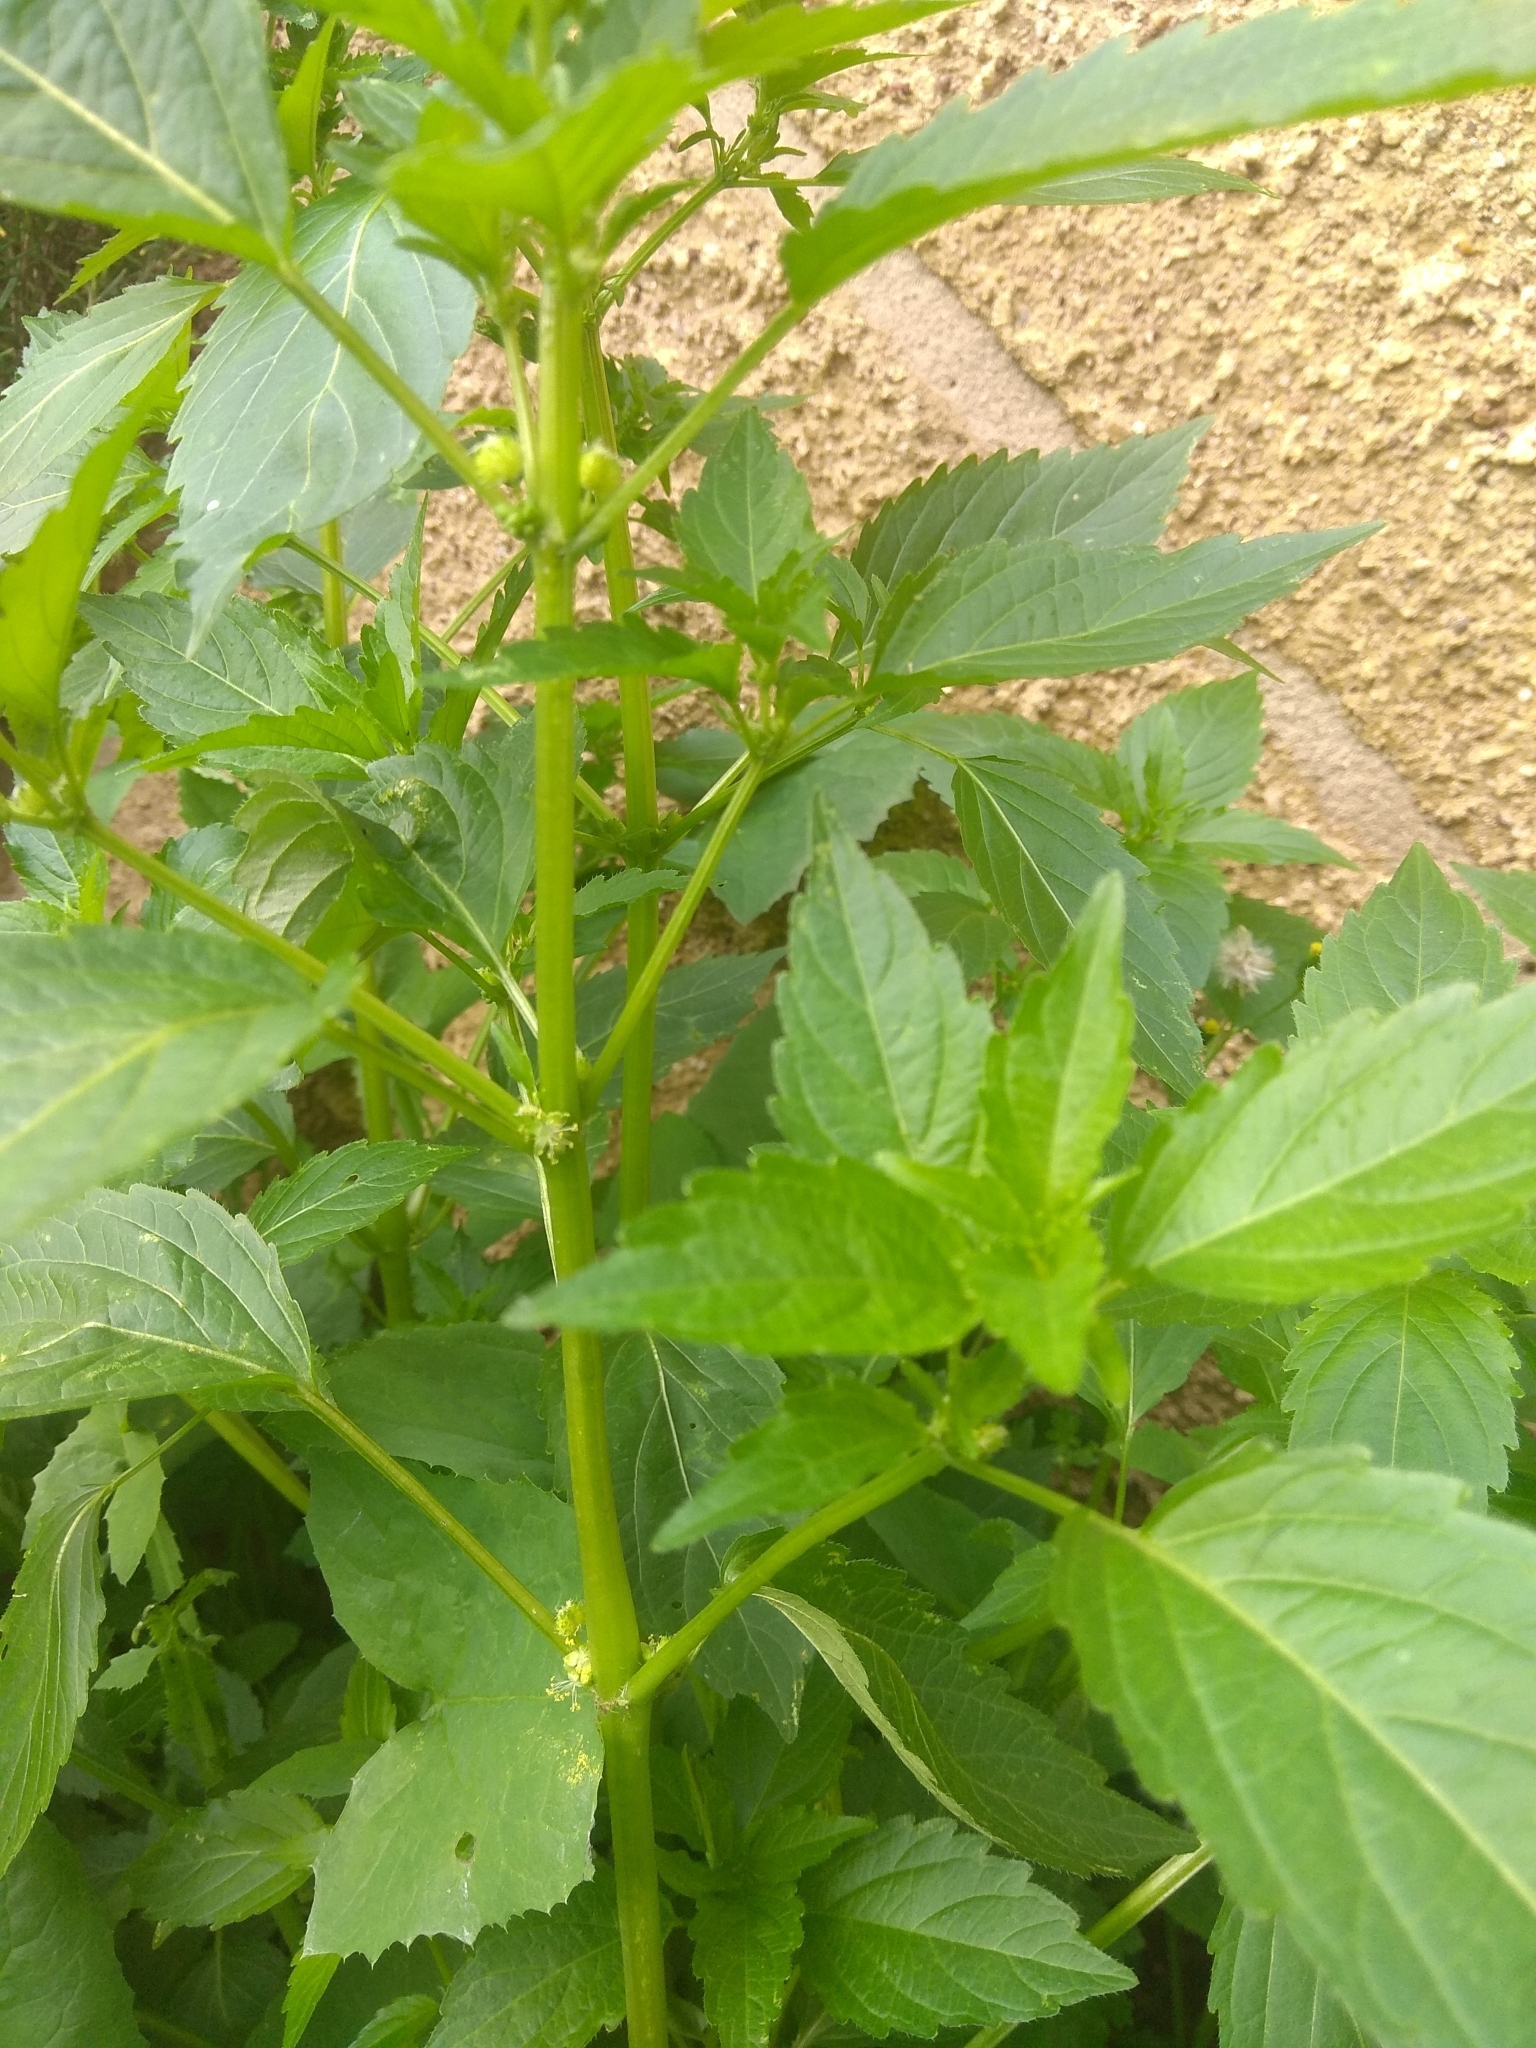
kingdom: Plantae
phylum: Tracheophyta
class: Magnoliopsida
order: Malpighiales
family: Euphorbiaceae
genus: Mercurialis
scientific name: Mercurialis annua
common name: Annual mercury
